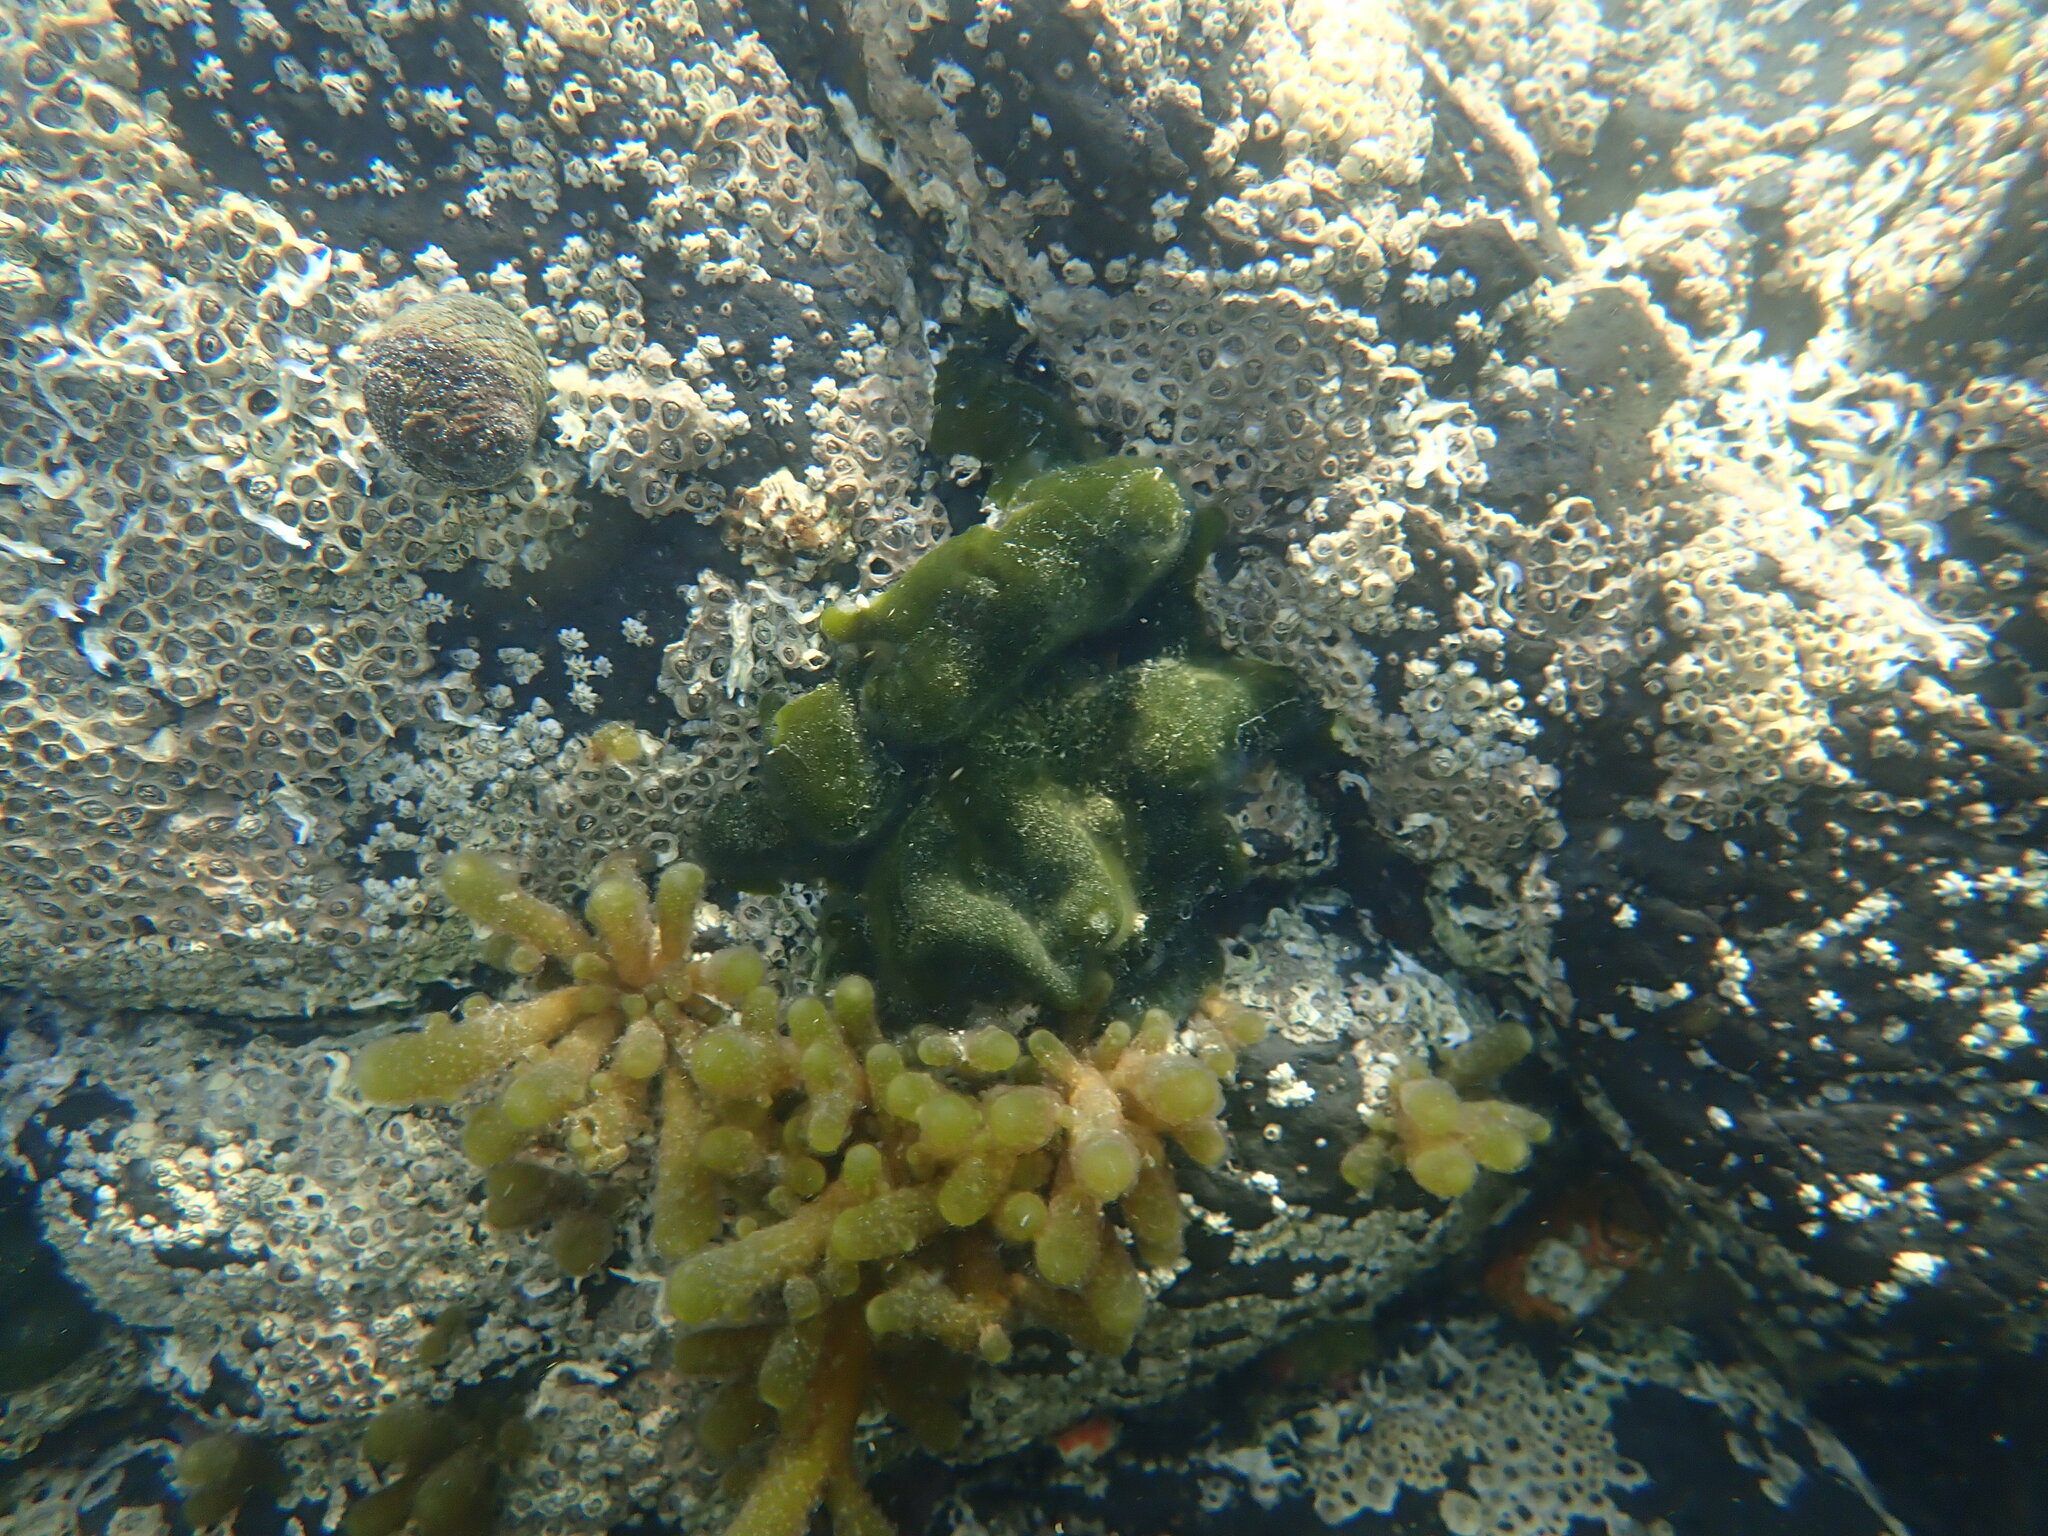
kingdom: Plantae
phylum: Chlorophyta
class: Ulvophyceae
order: Bryopsidales
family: Codiaceae
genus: Codium
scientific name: Codium convolutum
